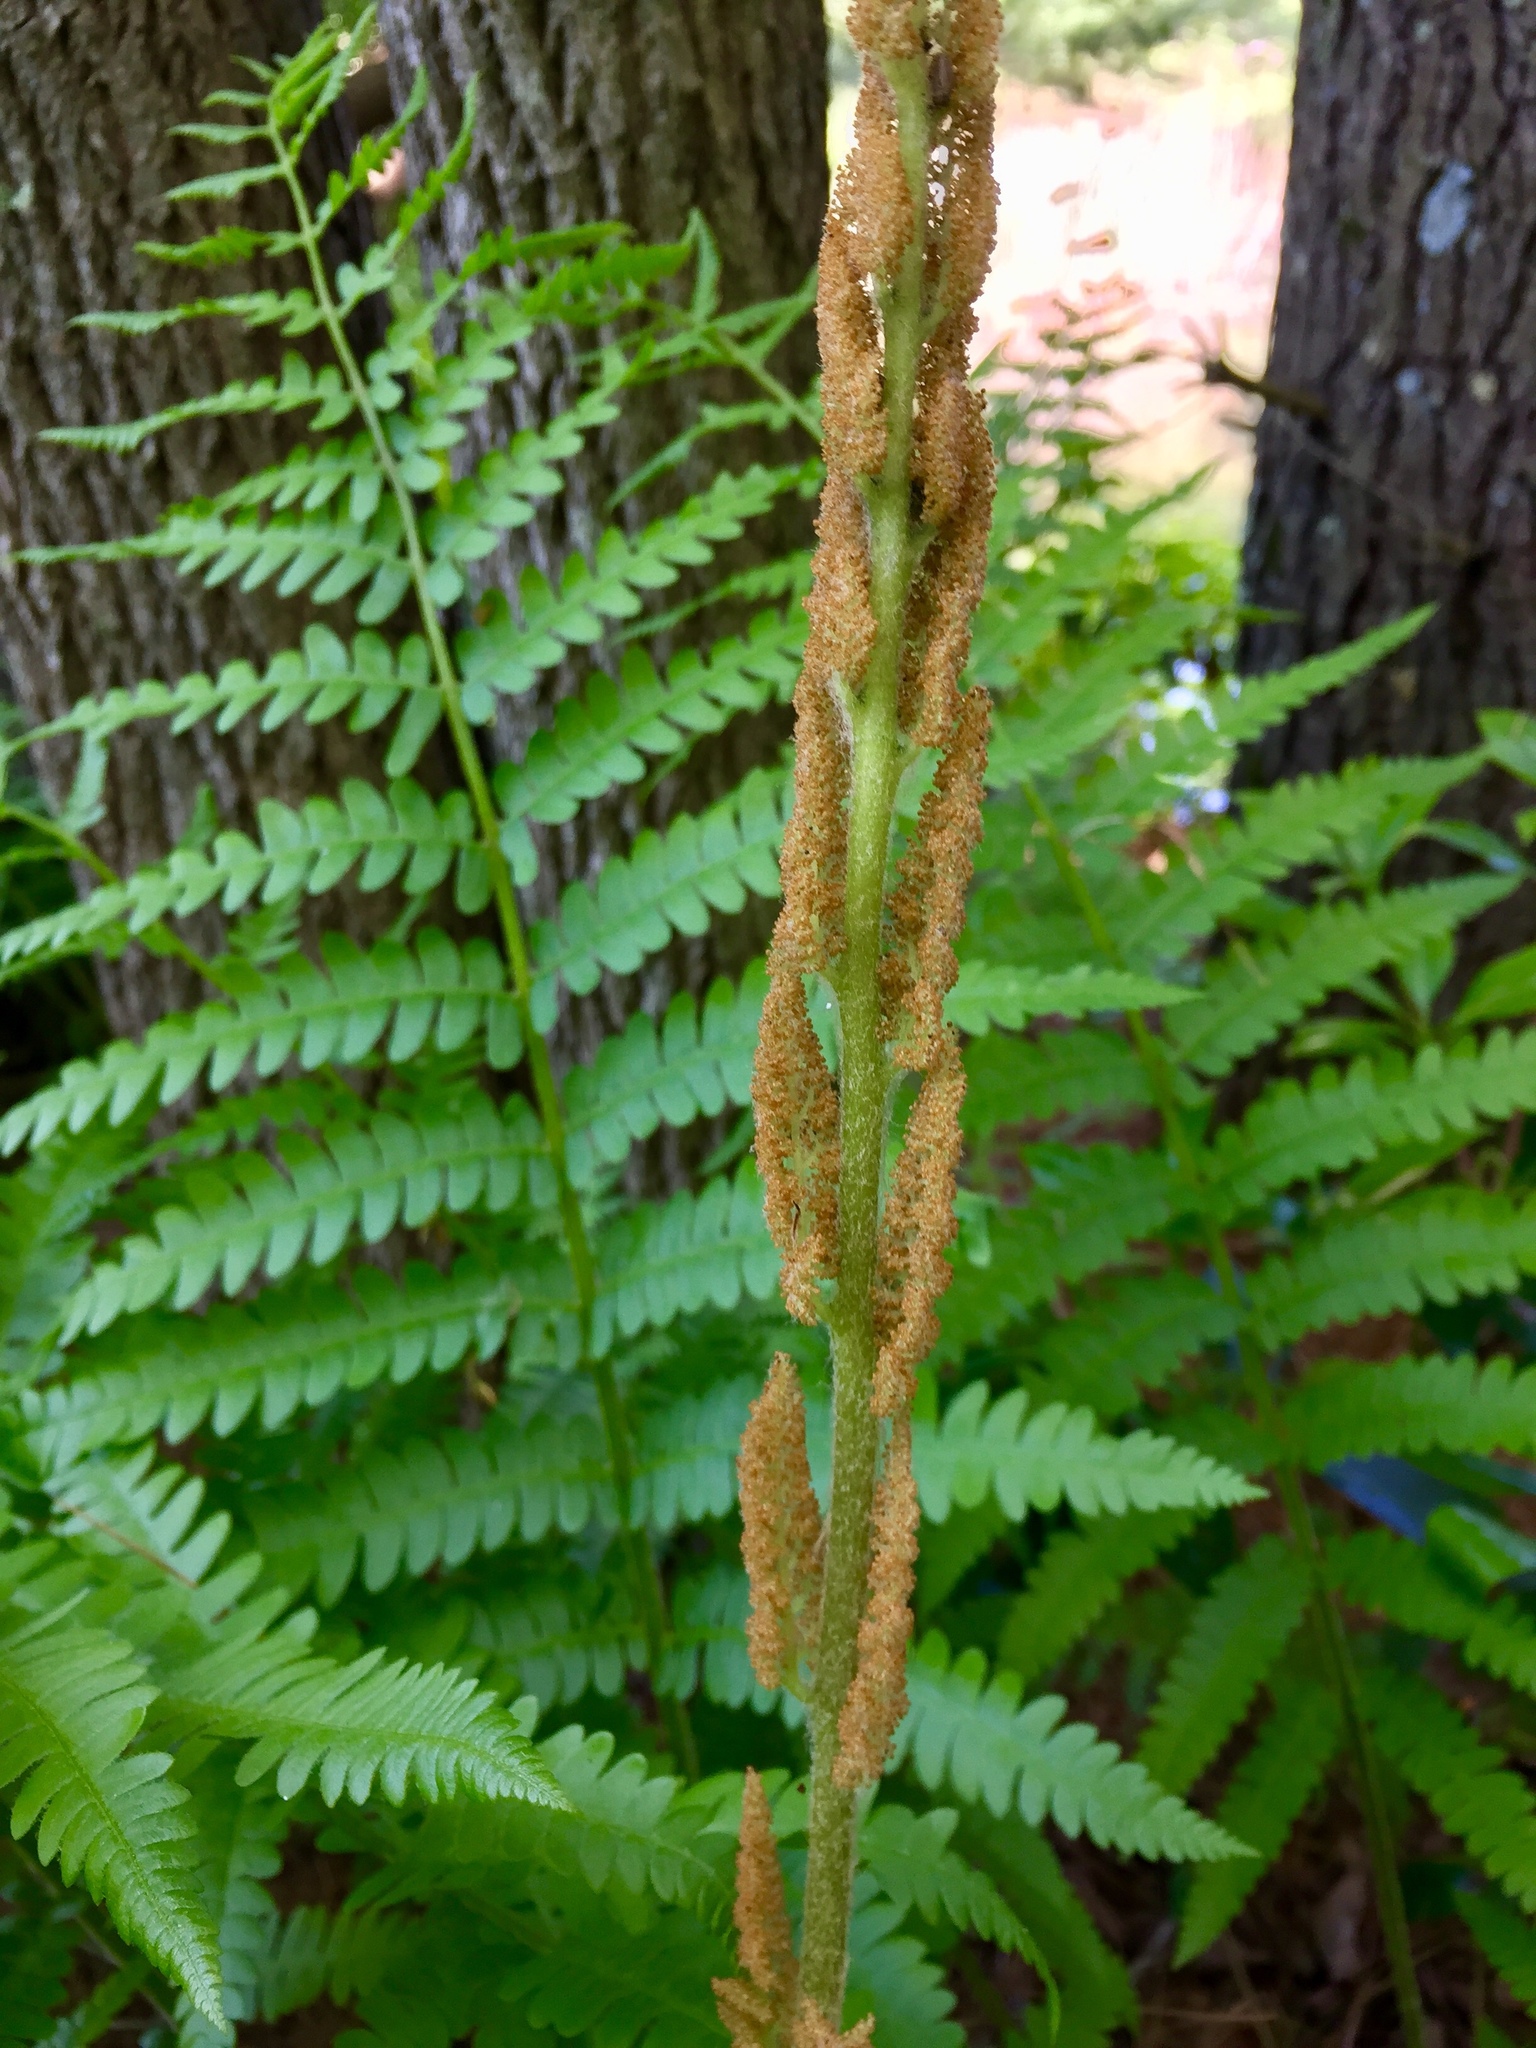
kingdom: Plantae
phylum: Tracheophyta
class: Polypodiopsida
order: Osmundales
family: Osmundaceae
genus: Osmundastrum
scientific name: Osmundastrum cinnamomeum
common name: Cinnamon fern
